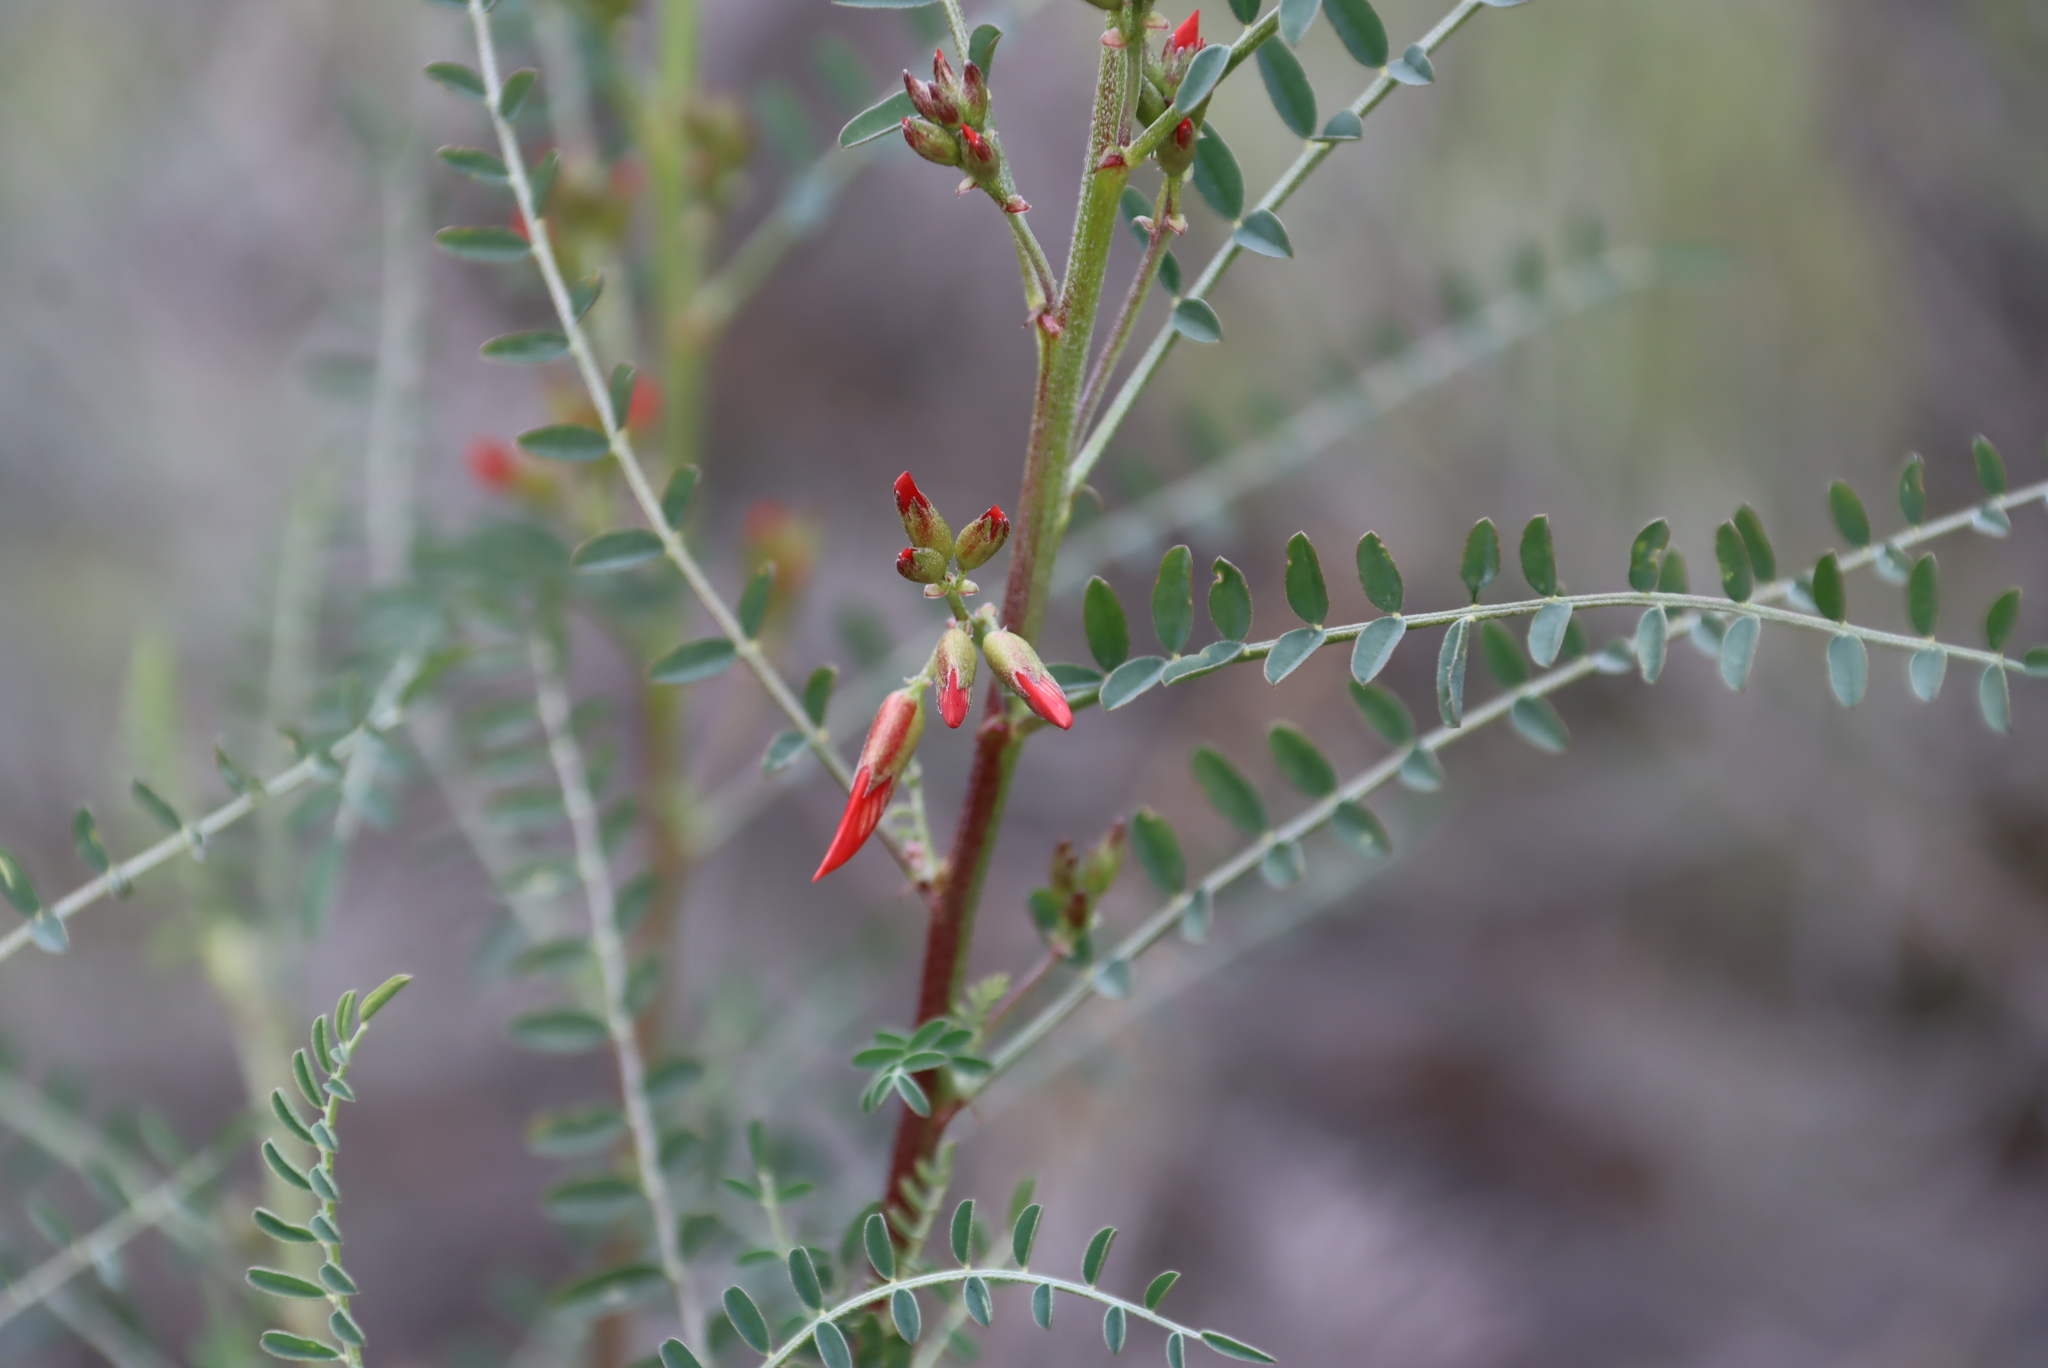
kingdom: Plantae
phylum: Tracheophyta
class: Magnoliopsida
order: Fabales
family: Fabaceae
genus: Lessertia
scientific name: Lessertia frutescens
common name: Balloon-pea
